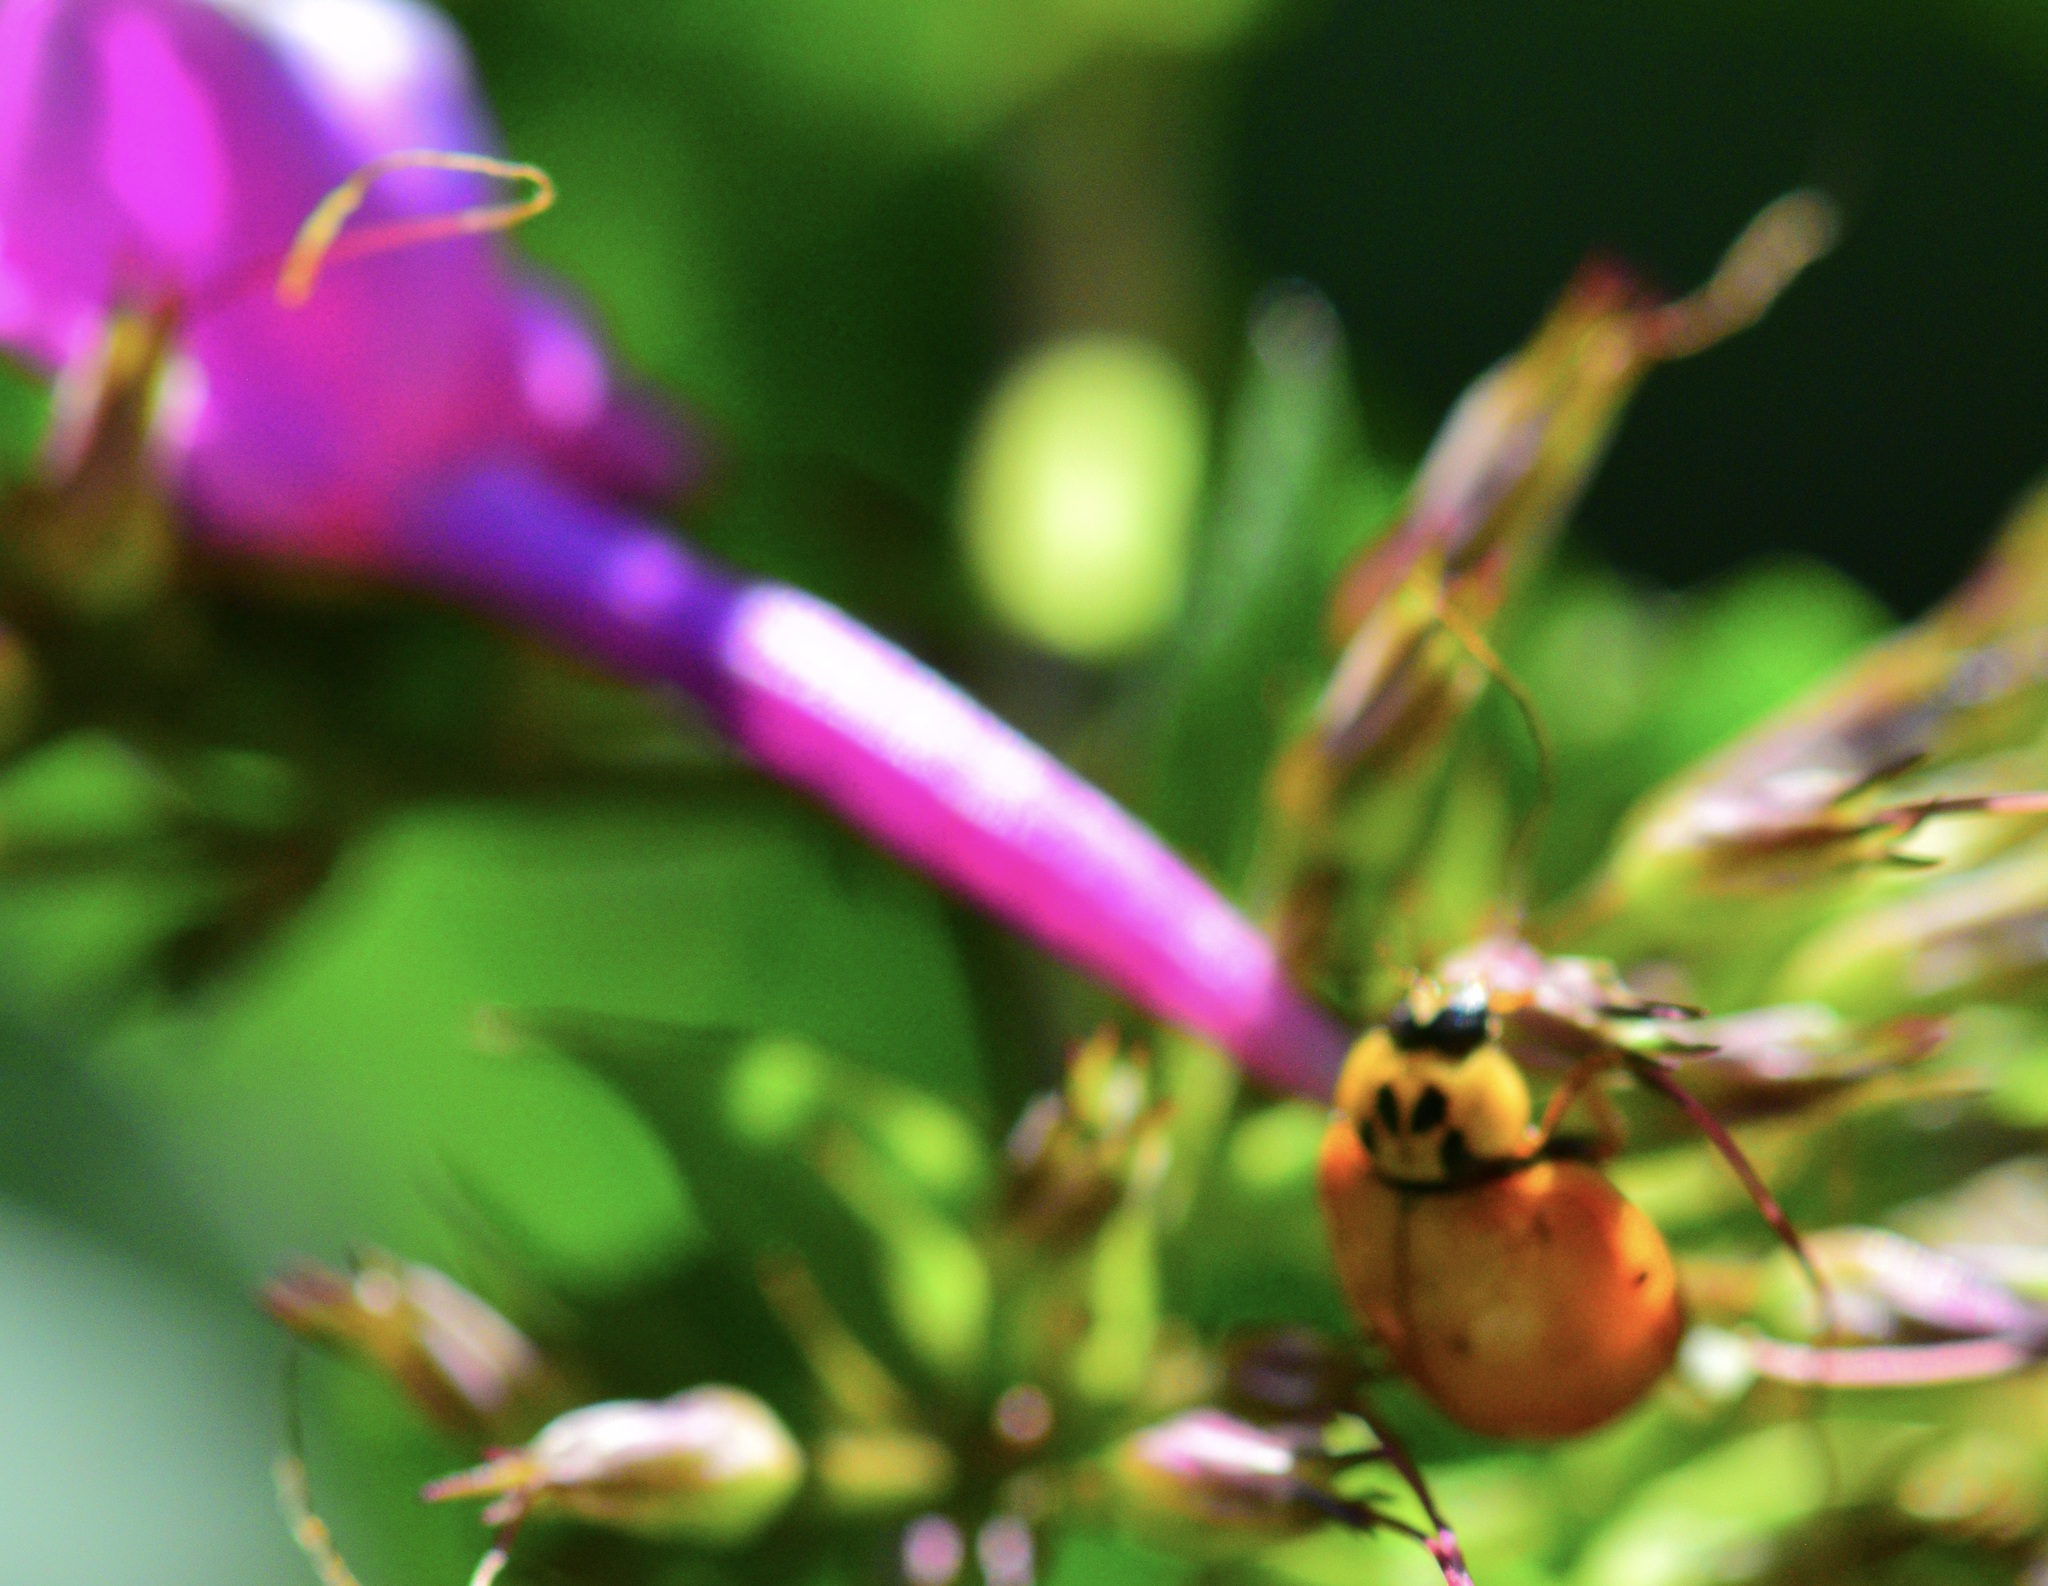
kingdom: Animalia
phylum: Arthropoda
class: Insecta
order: Coleoptera
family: Coccinellidae
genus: Harmonia
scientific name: Harmonia axyridis
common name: Harlequin ladybird
